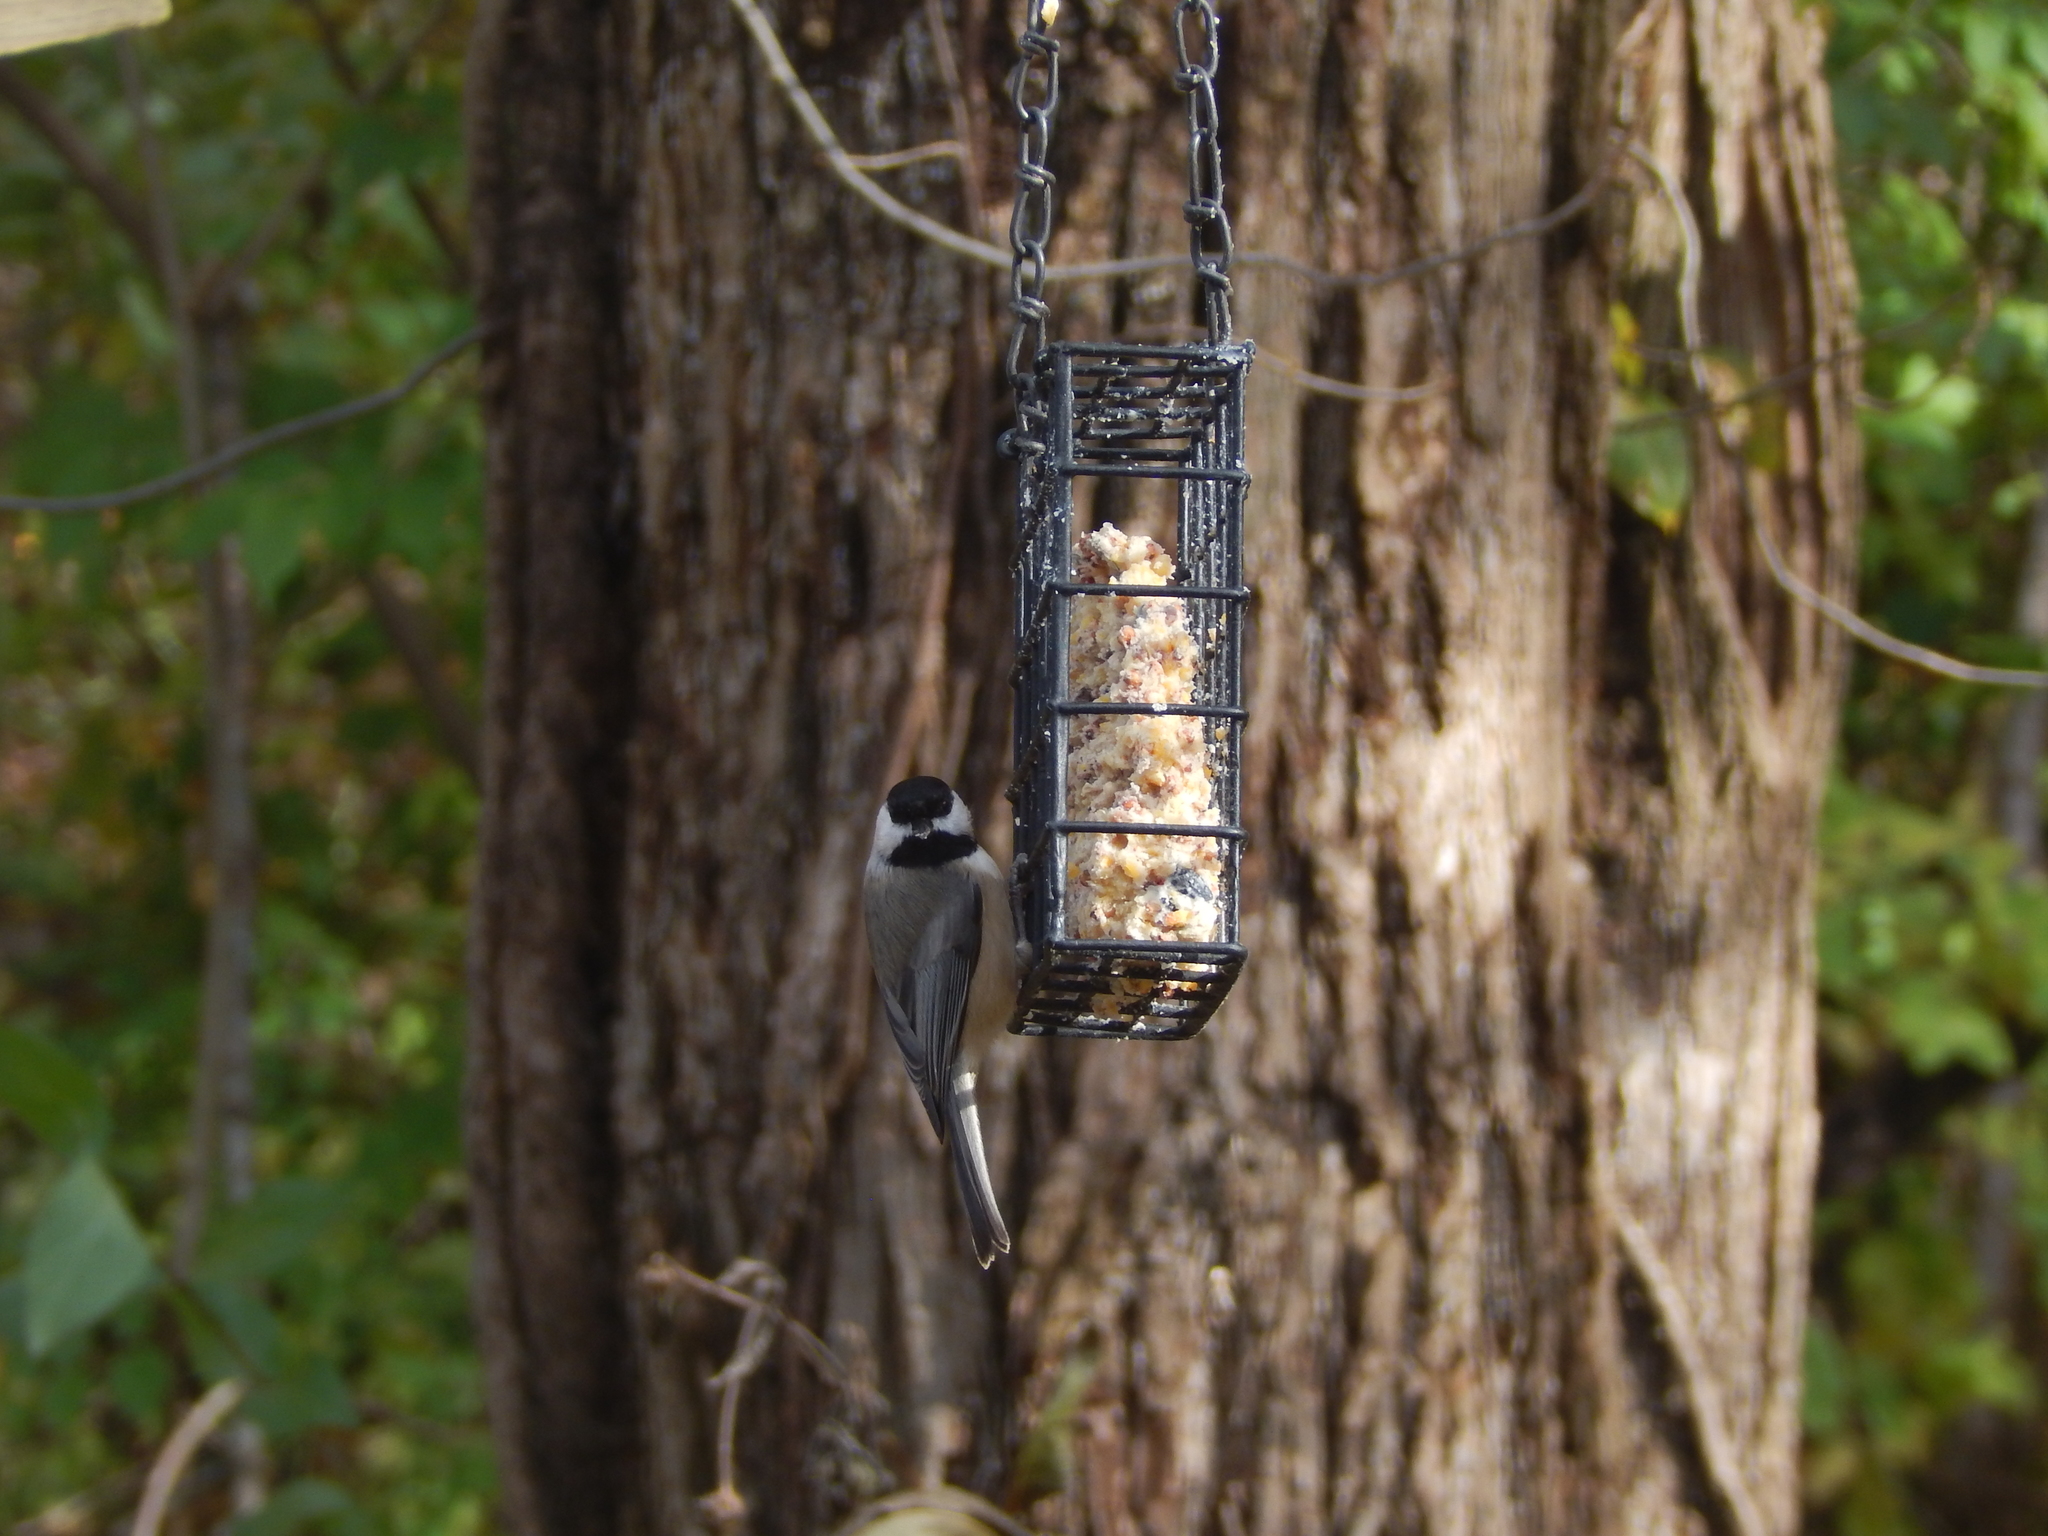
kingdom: Animalia
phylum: Chordata
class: Aves
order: Passeriformes
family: Paridae
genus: Poecile
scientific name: Poecile carolinensis
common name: Carolina chickadee
